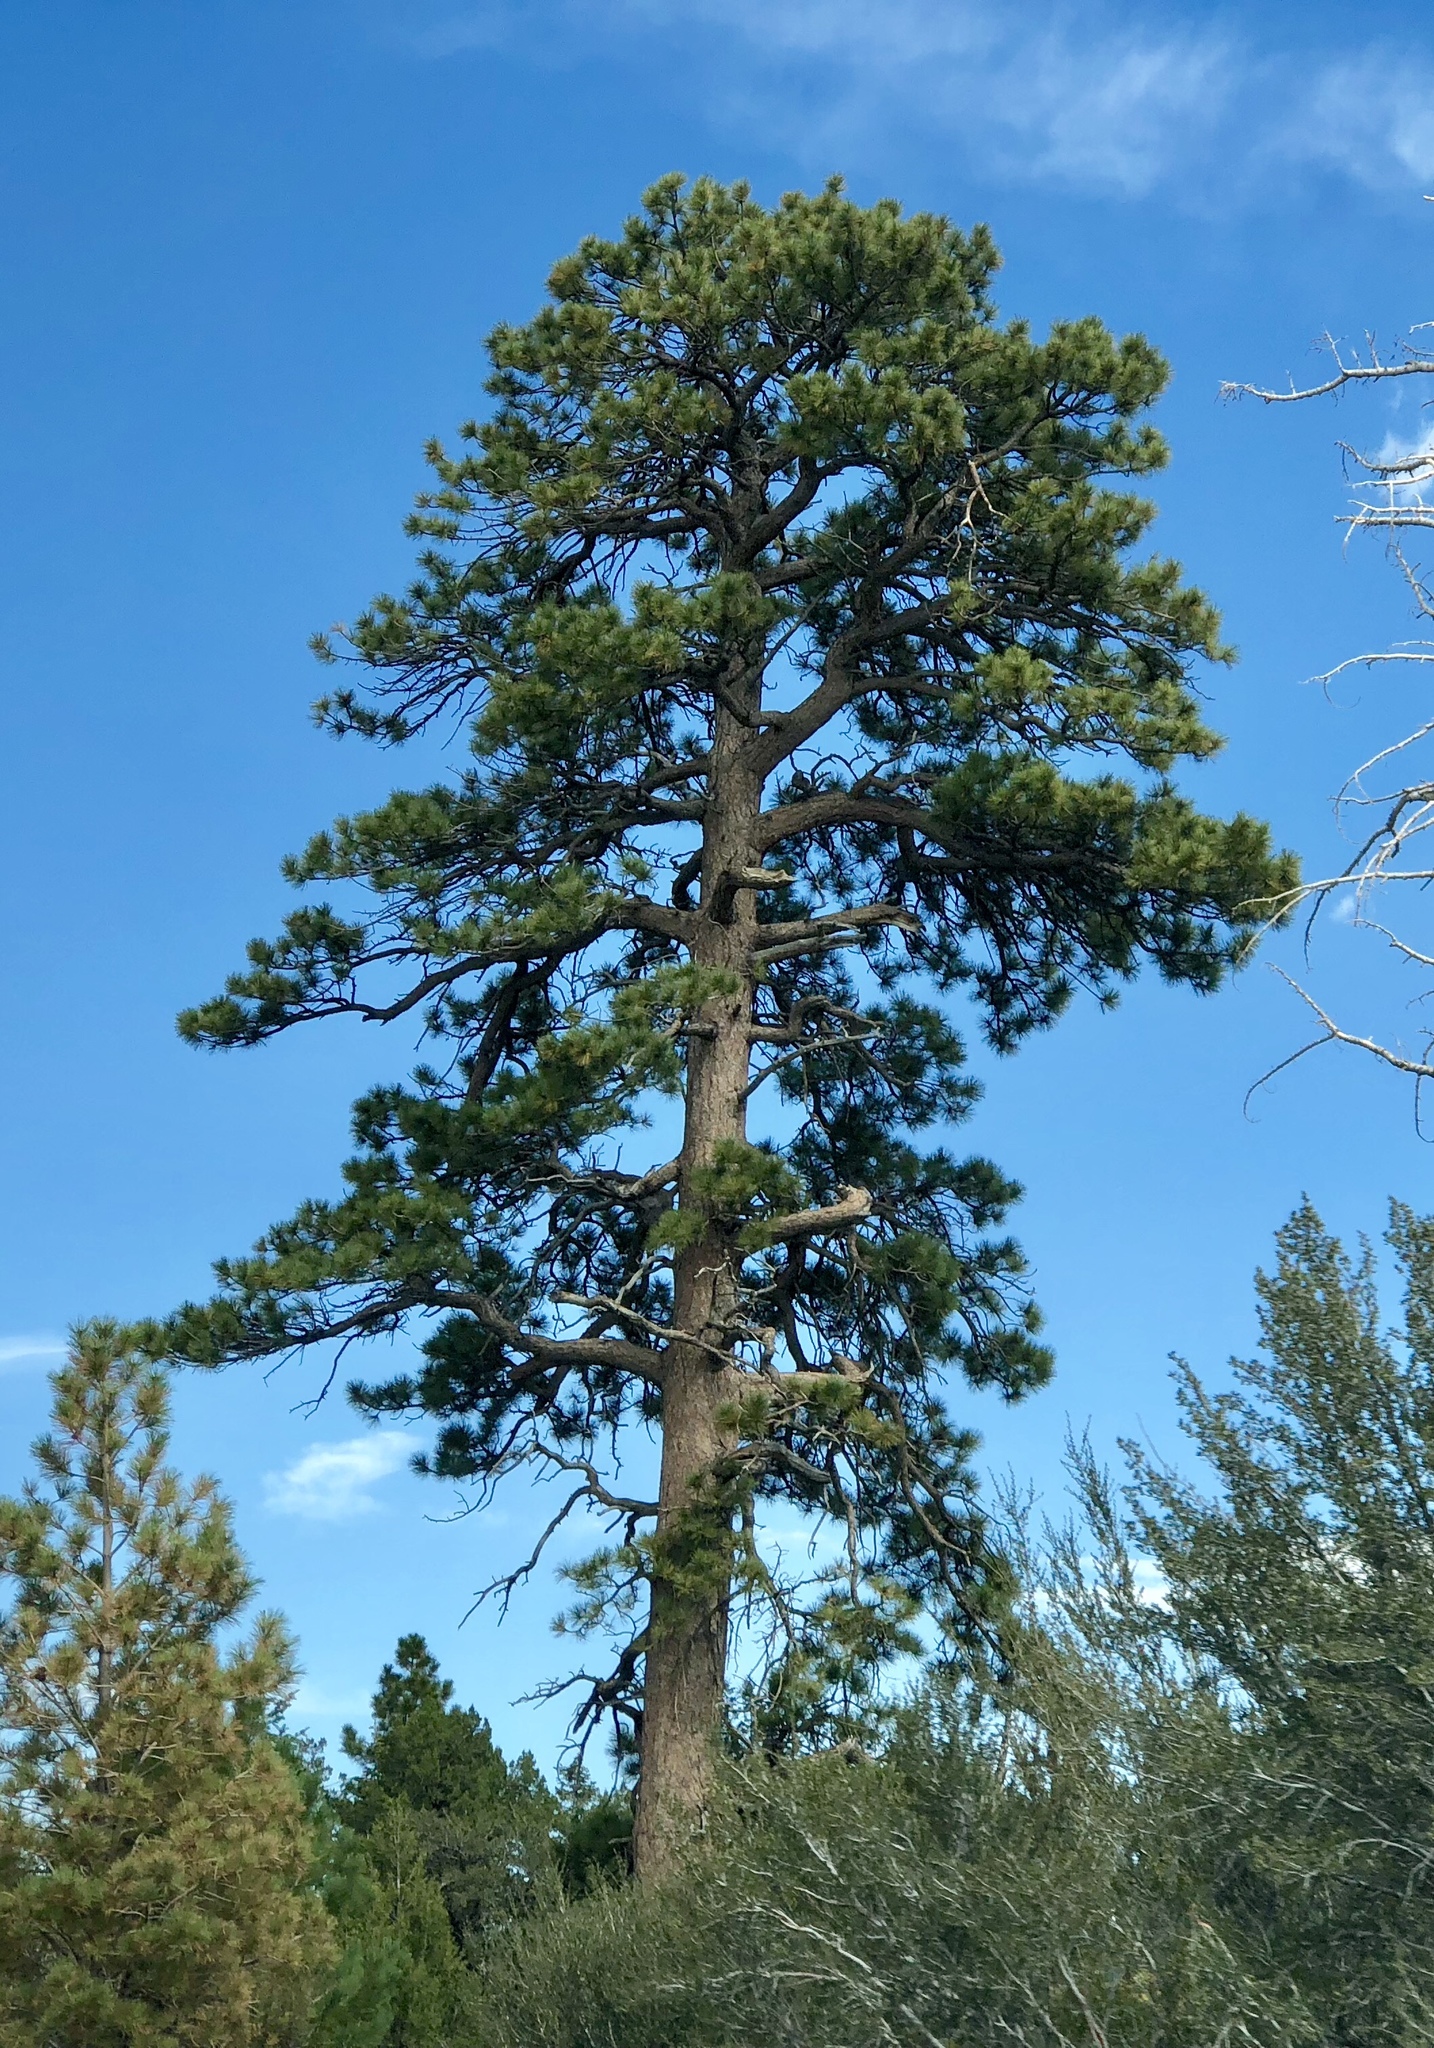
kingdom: Plantae
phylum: Tracheophyta
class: Pinopsida
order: Pinales
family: Pinaceae
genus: Pinus
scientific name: Pinus ponderosa
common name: Western yellow-pine
